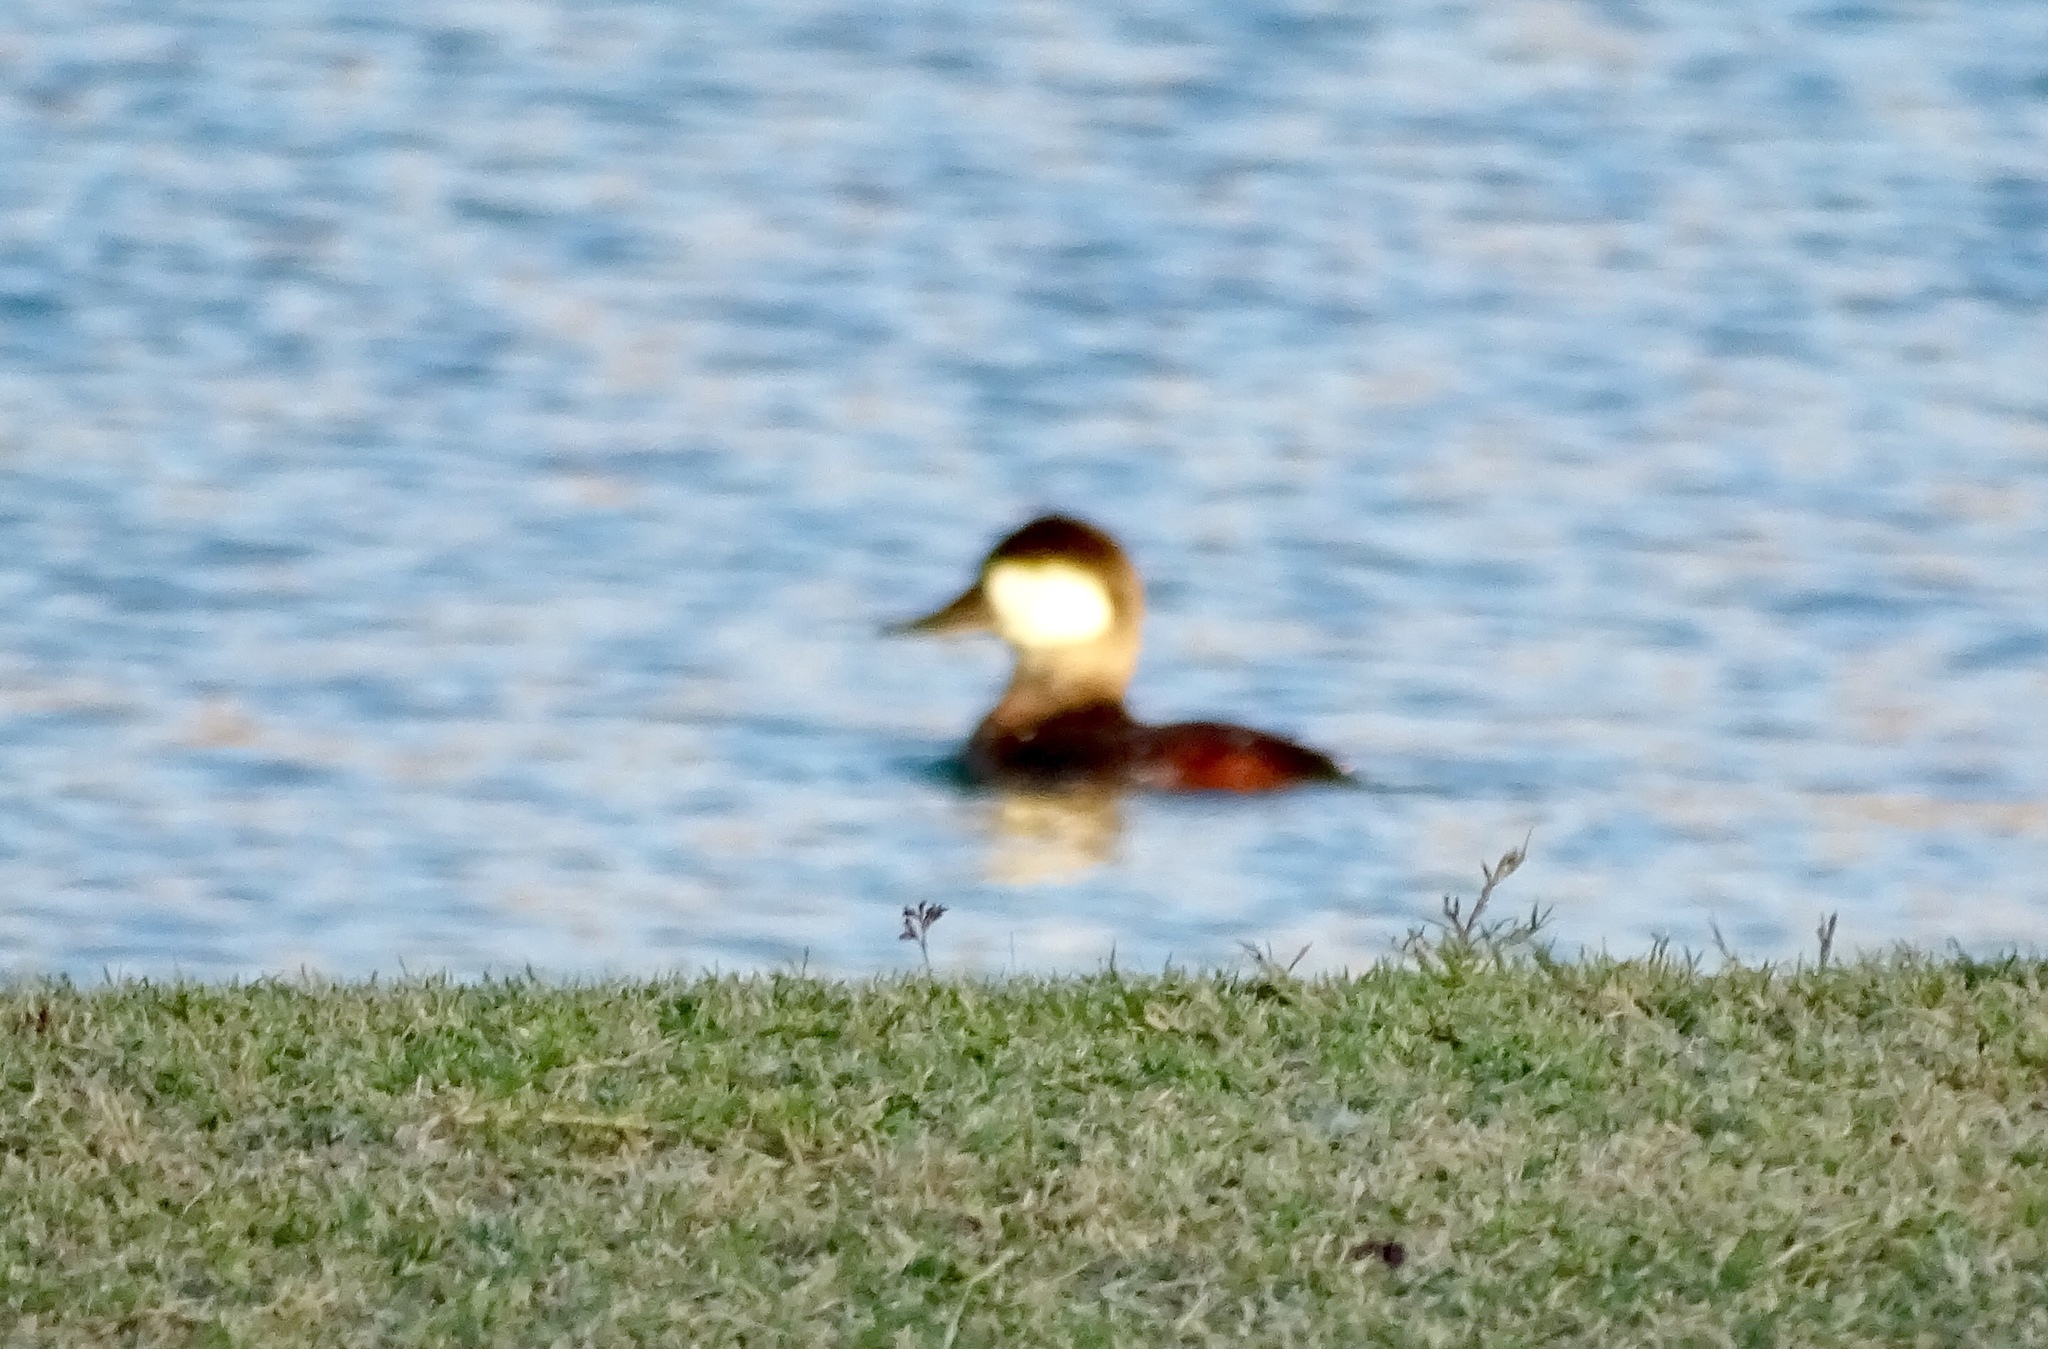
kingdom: Animalia
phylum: Chordata
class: Aves
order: Anseriformes
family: Anatidae
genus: Oxyura
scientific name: Oxyura jamaicensis
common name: Ruddy duck
